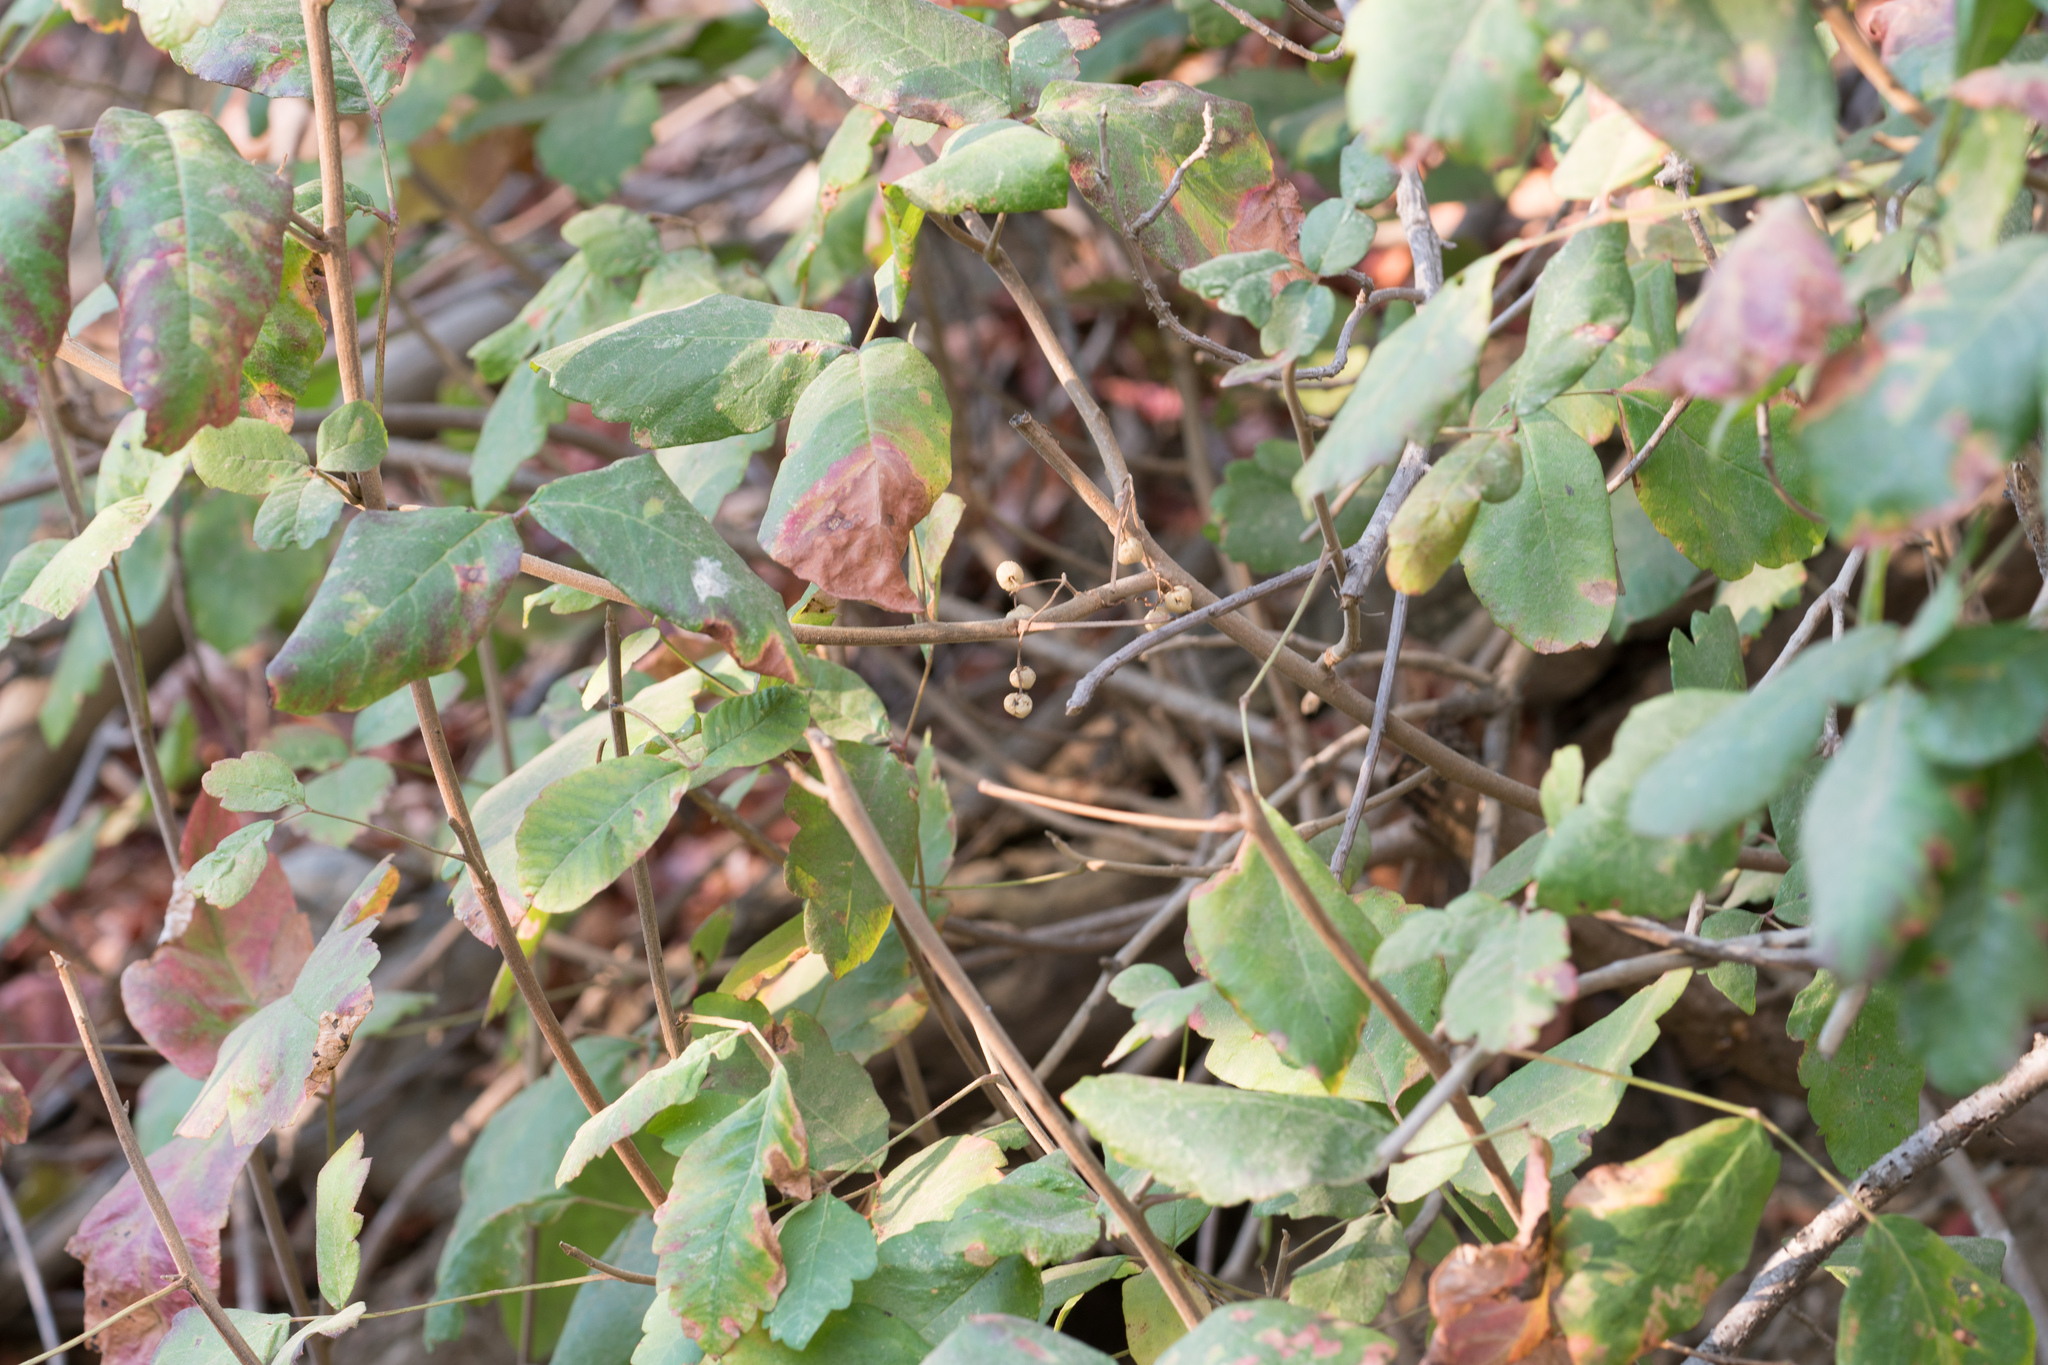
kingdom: Plantae
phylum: Tracheophyta
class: Magnoliopsida
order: Sapindales
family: Anacardiaceae
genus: Toxicodendron
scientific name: Toxicodendron diversilobum
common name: Pacific poison-oak
